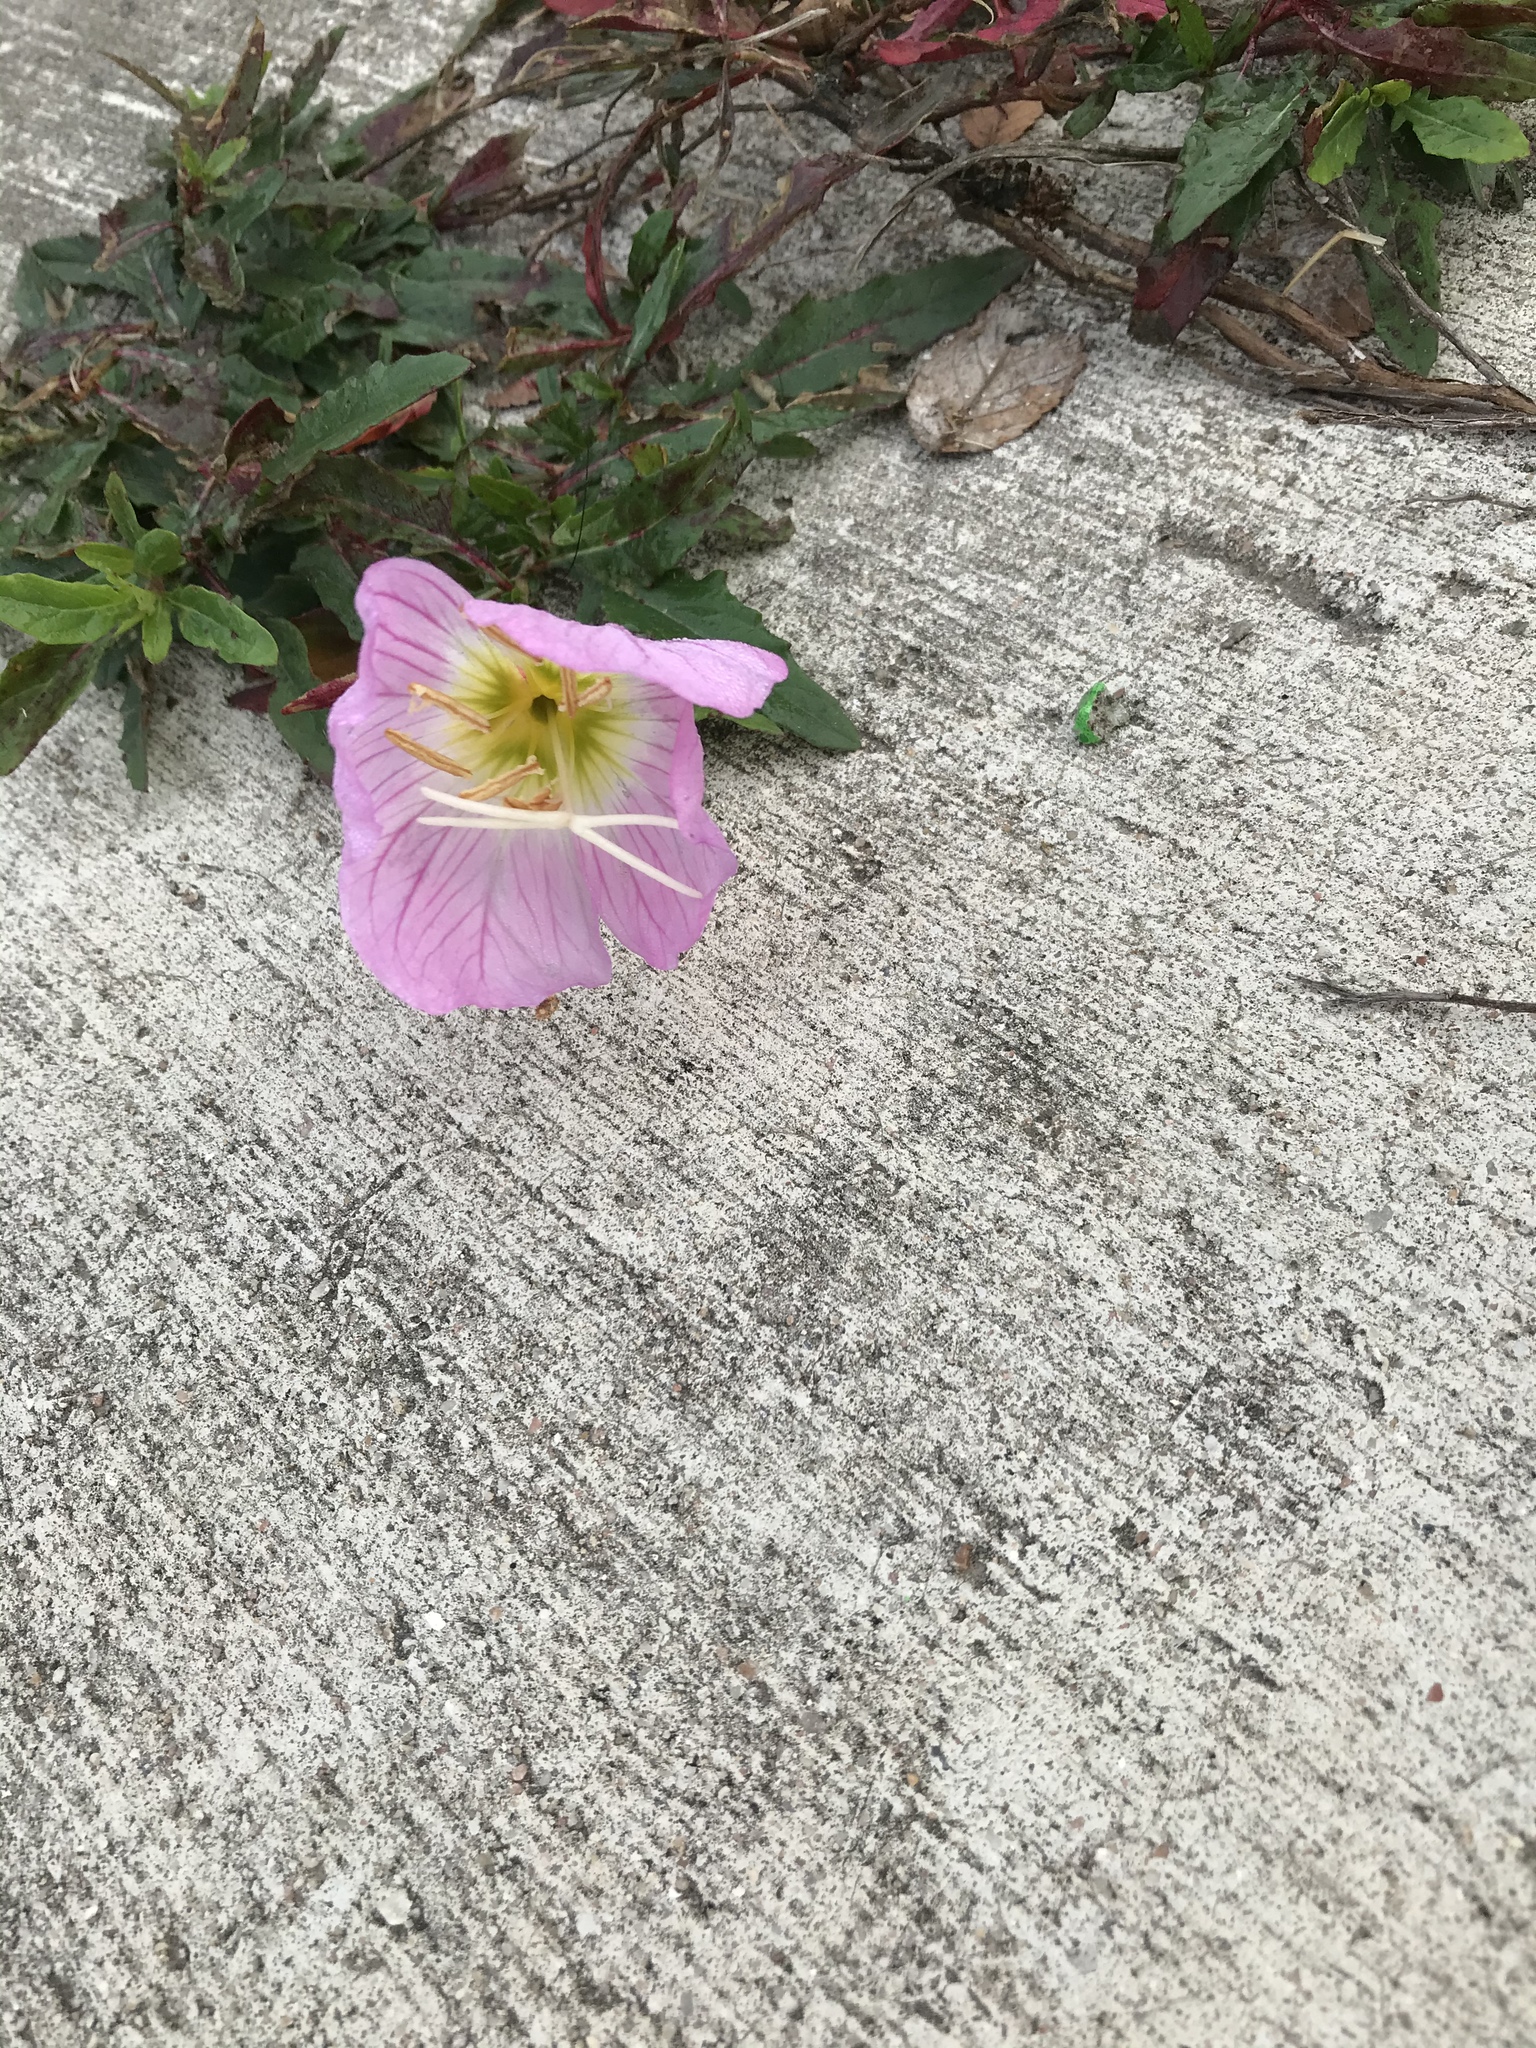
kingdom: Plantae
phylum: Tracheophyta
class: Magnoliopsida
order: Myrtales
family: Onagraceae
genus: Oenothera
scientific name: Oenothera speciosa
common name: White evening-primrose
